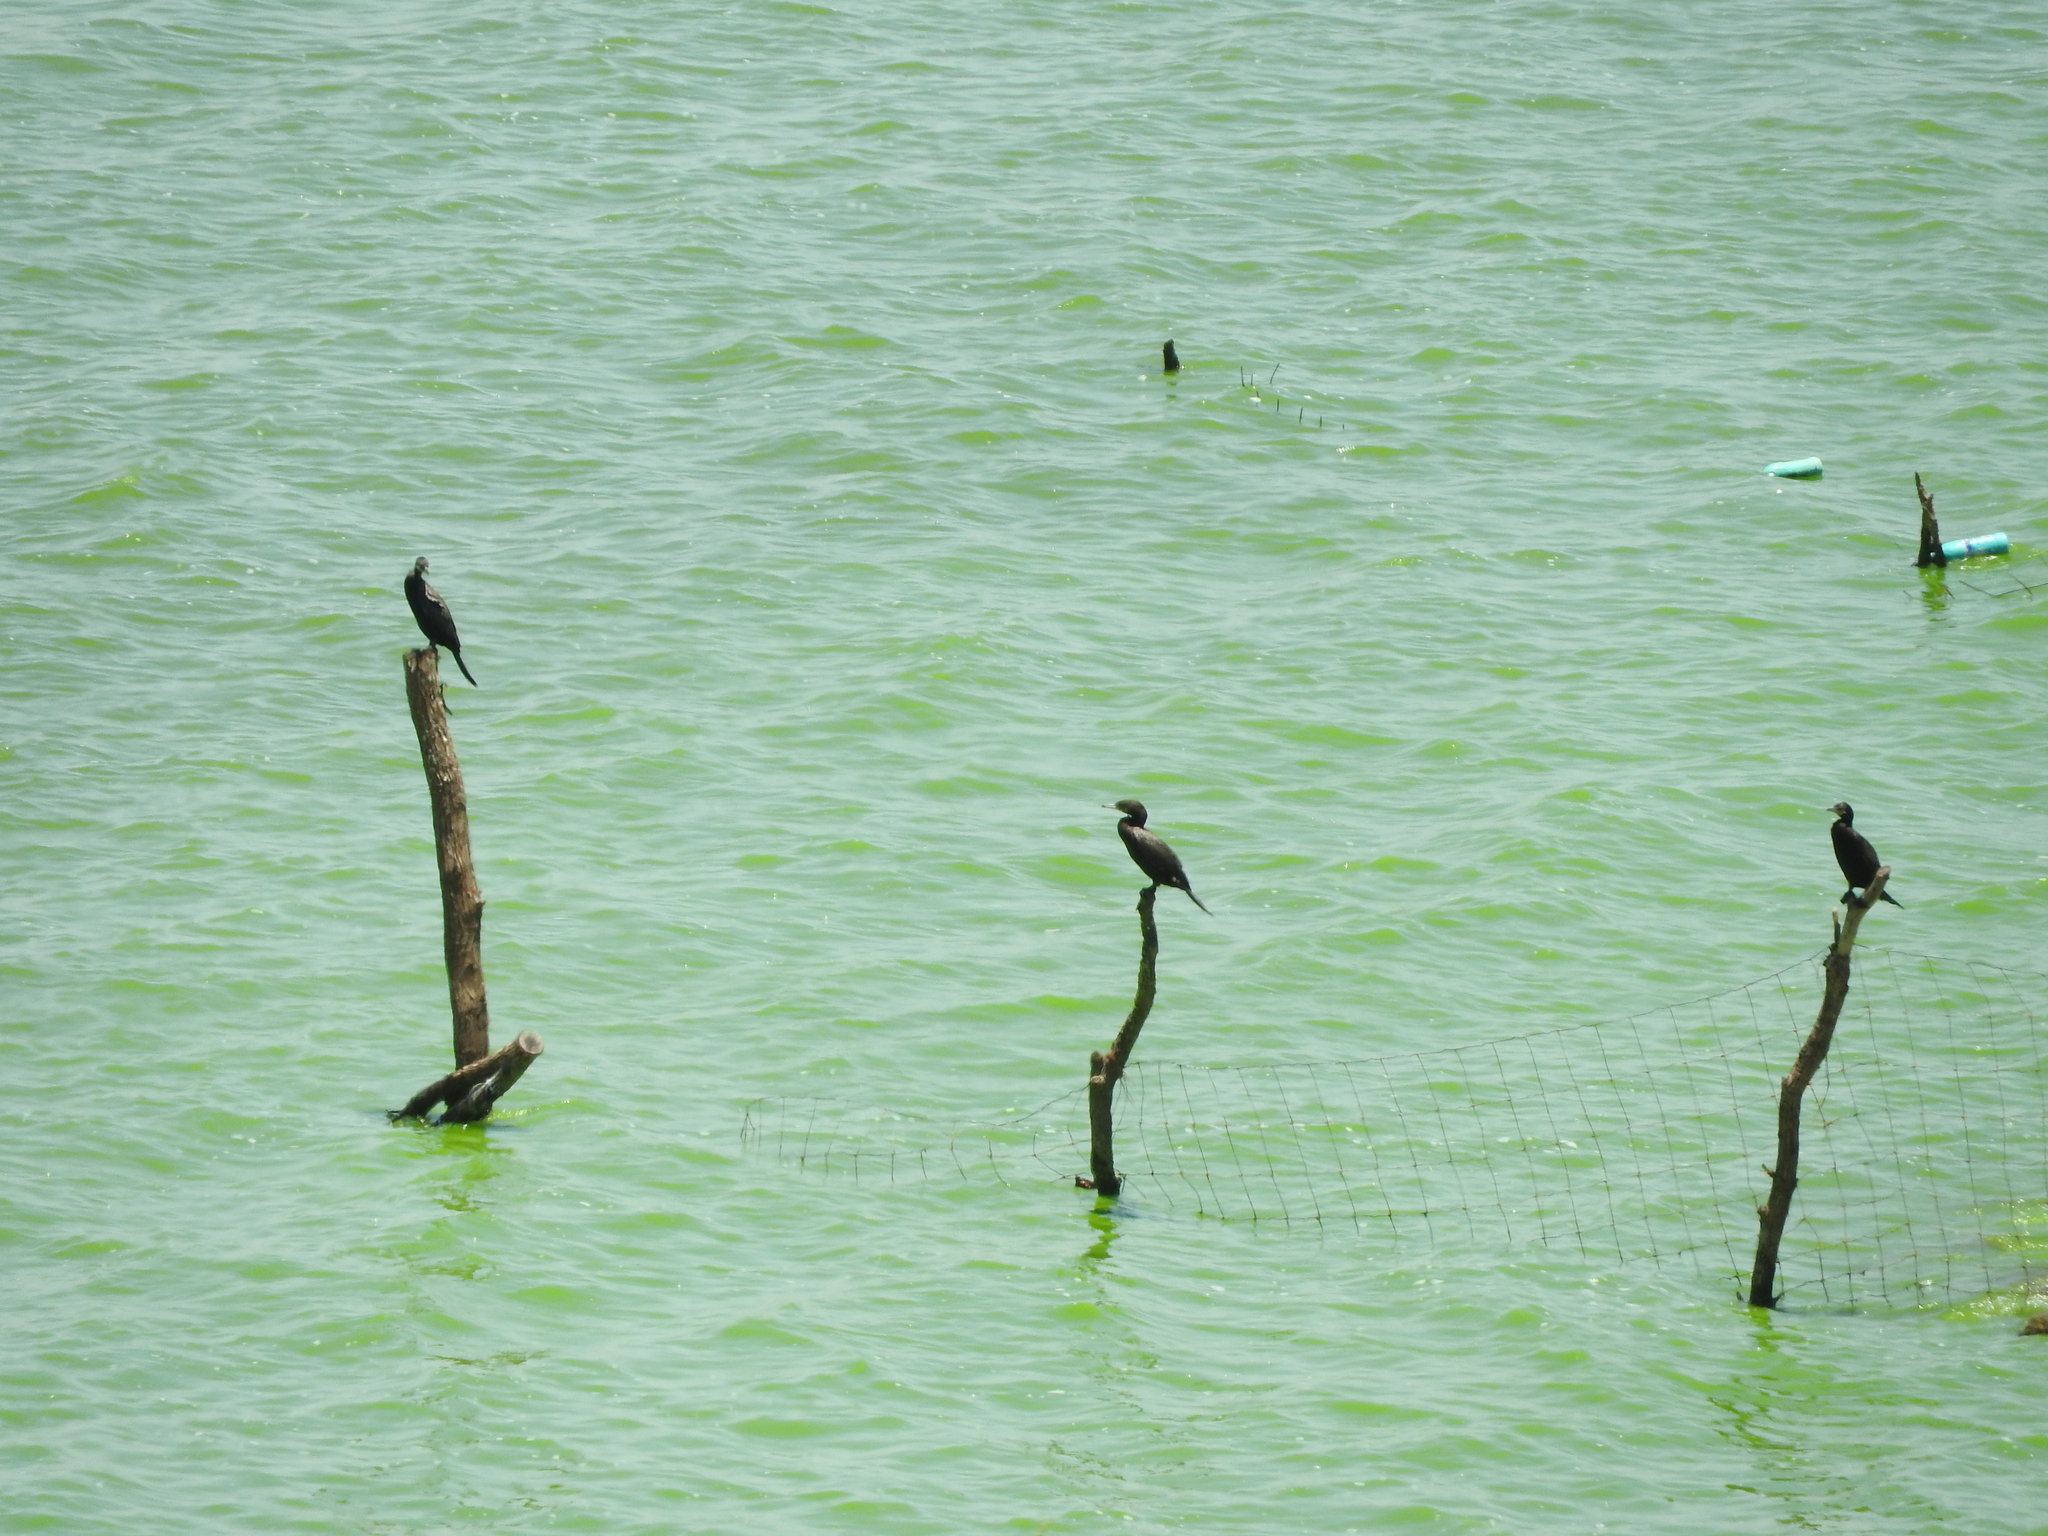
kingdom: Animalia
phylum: Chordata
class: Aves
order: Suliformes
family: Phalacrocoracidae
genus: Phalacrocorax
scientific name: Phalacrocorax brasilianus
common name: Neotropic cormorant
